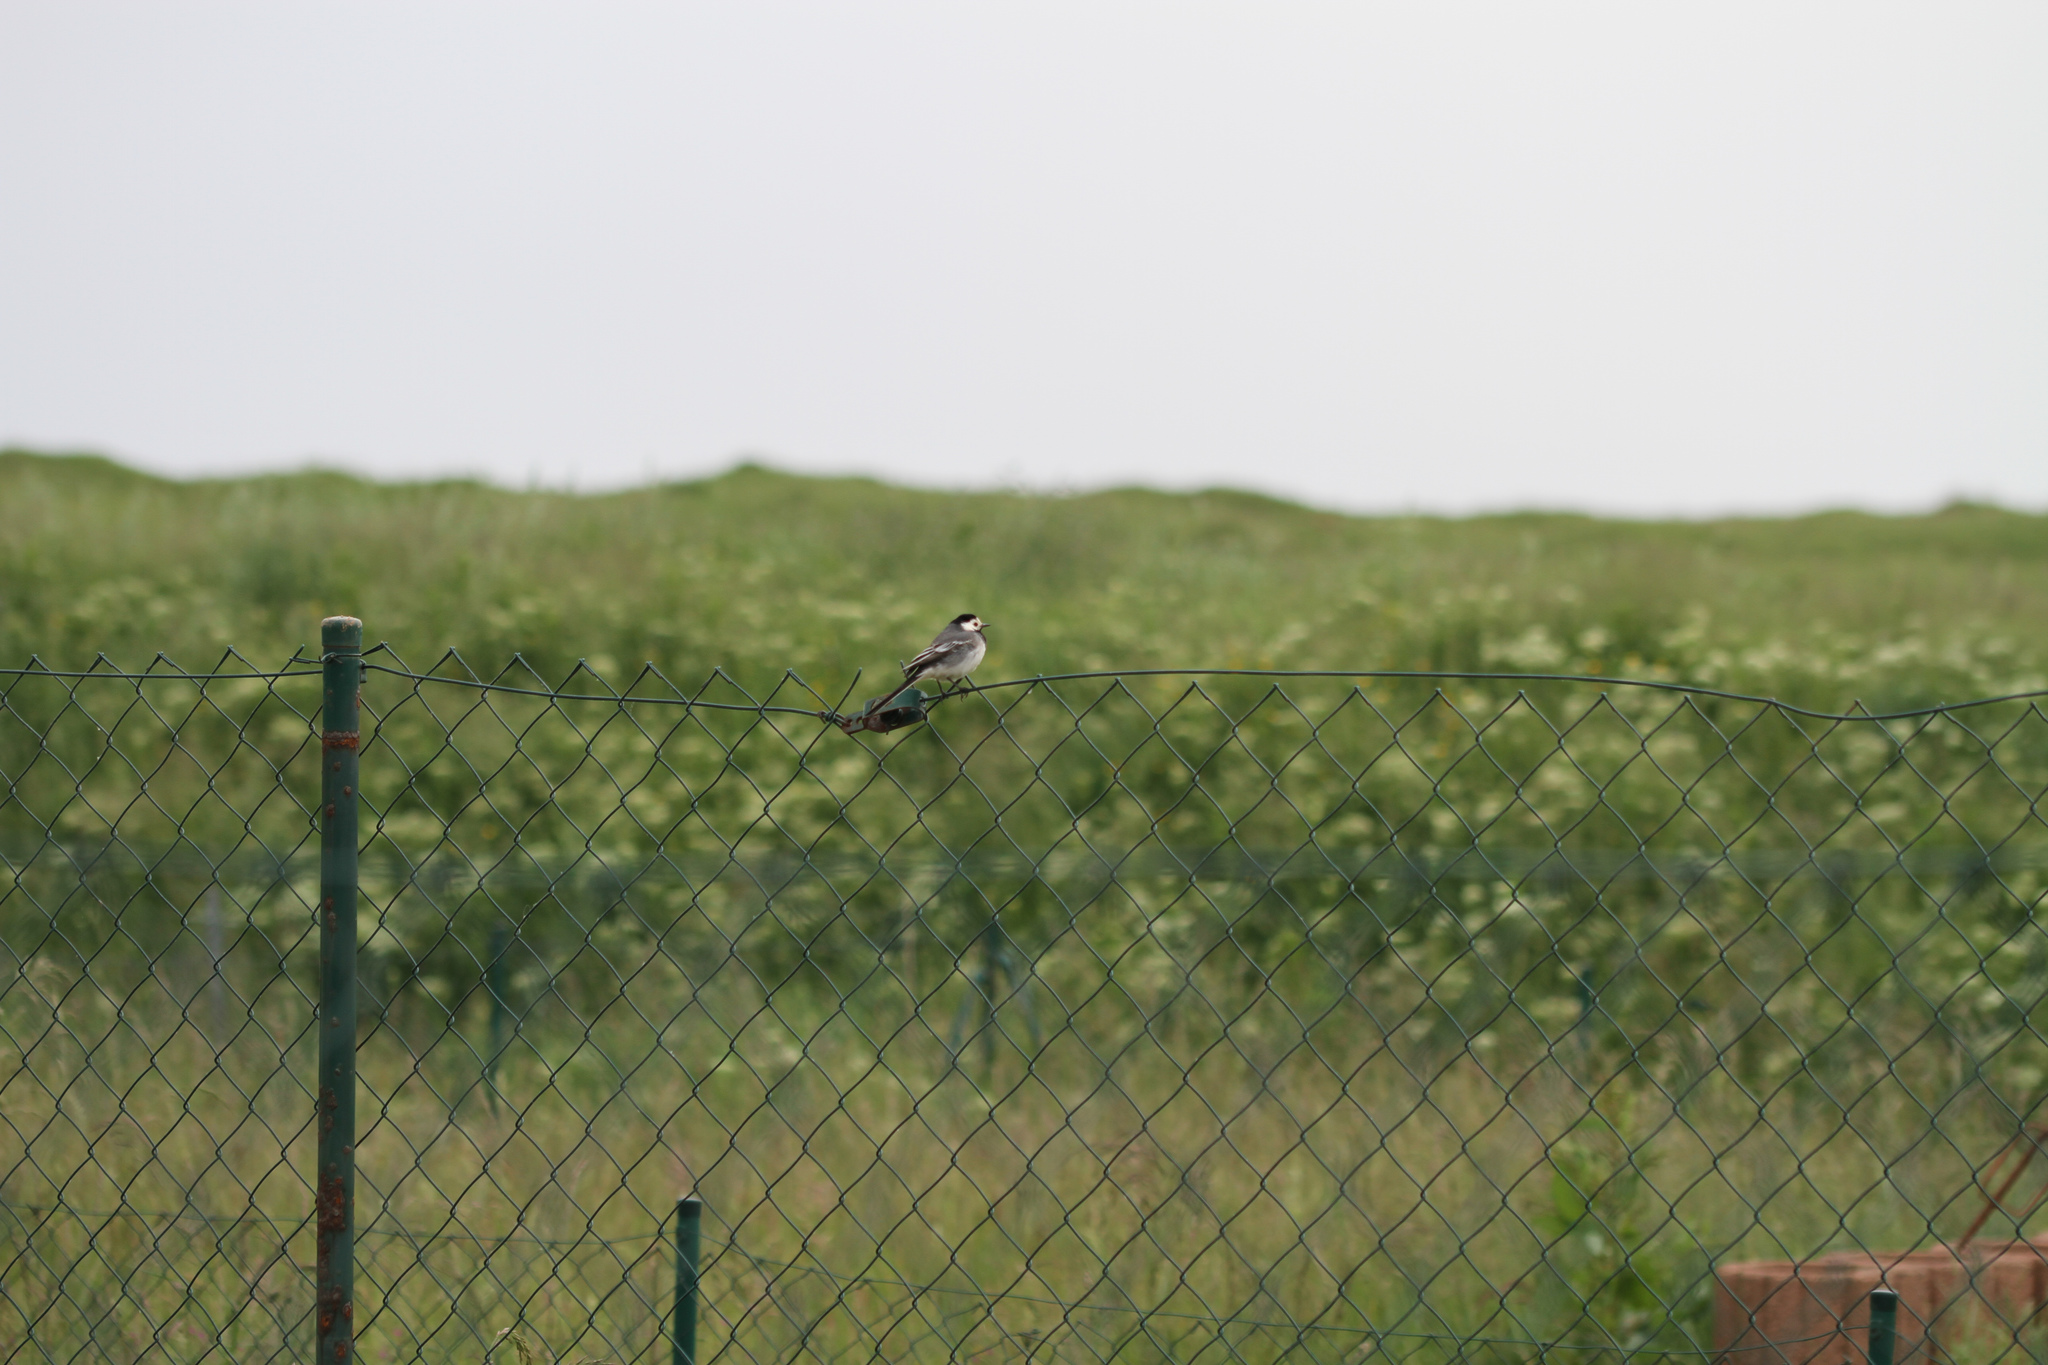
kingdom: Animalia
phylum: Chordata
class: Aves
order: Passeriformes
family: Motacillidae
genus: Motacilla
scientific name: Motacilla alba
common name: White wagtail
